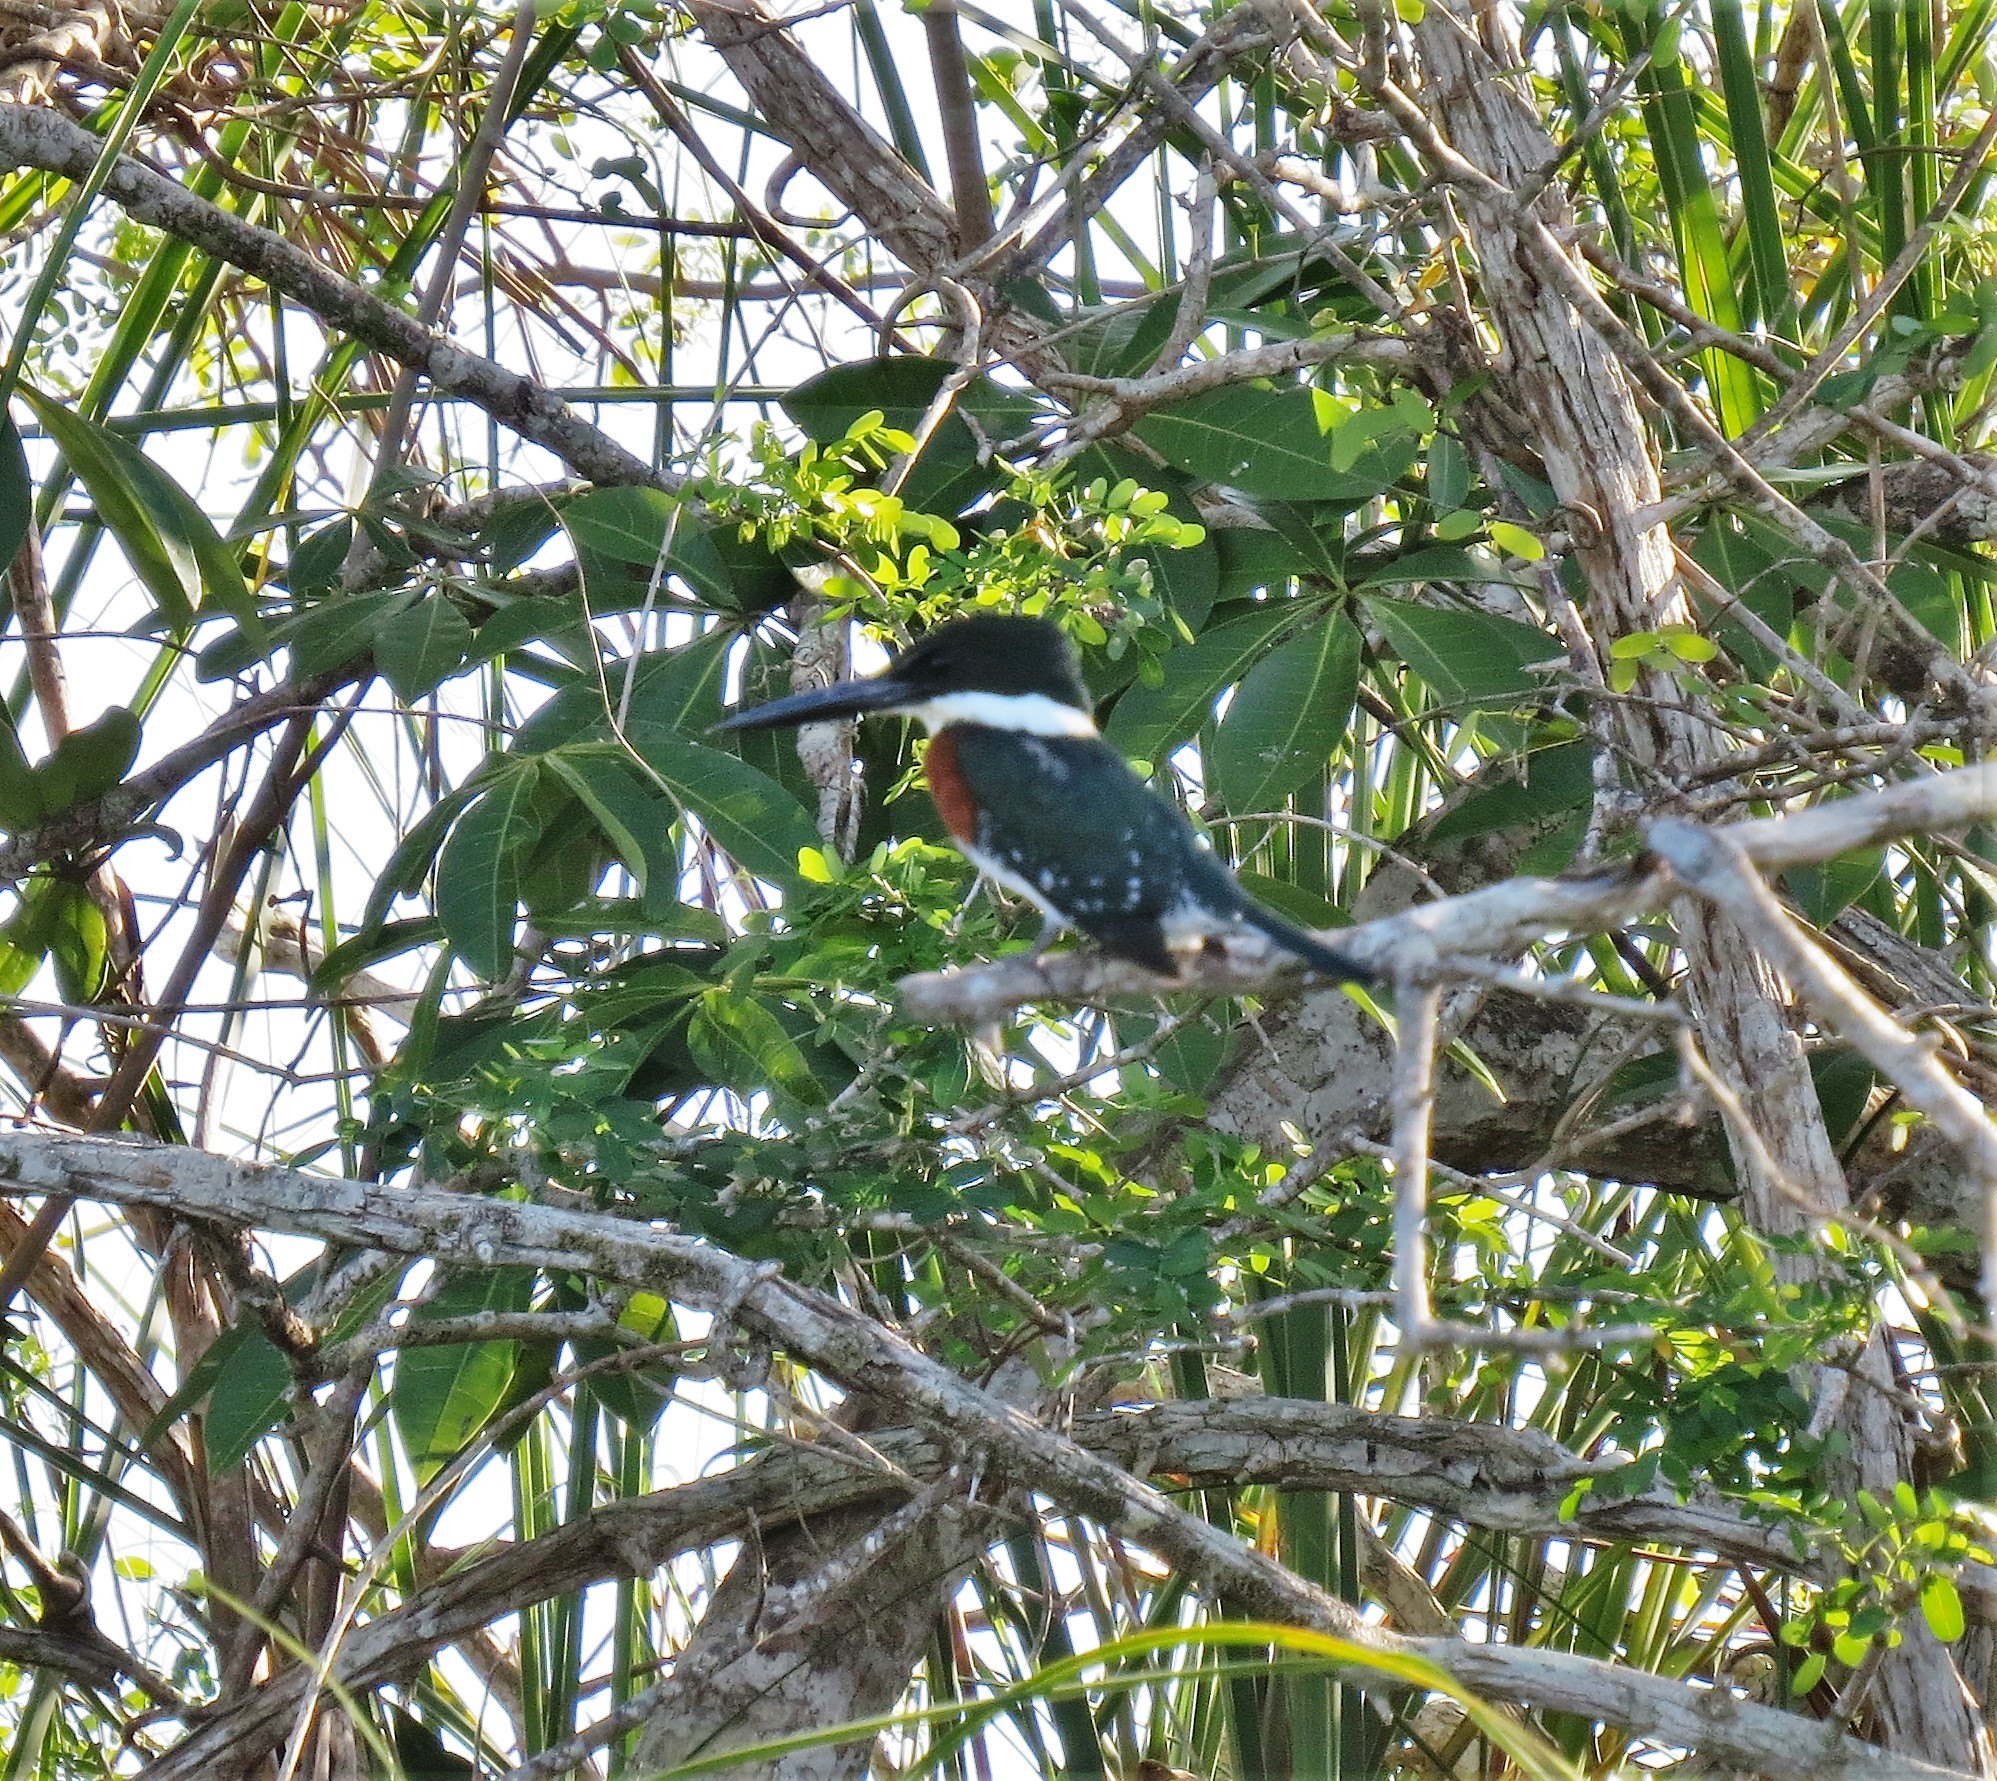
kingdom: Animalia
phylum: Chordata
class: Aves
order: Coraciiformes
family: Alcedinidae
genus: Chloroceryle
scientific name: Chloroceryle americana
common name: Green kingfisher
